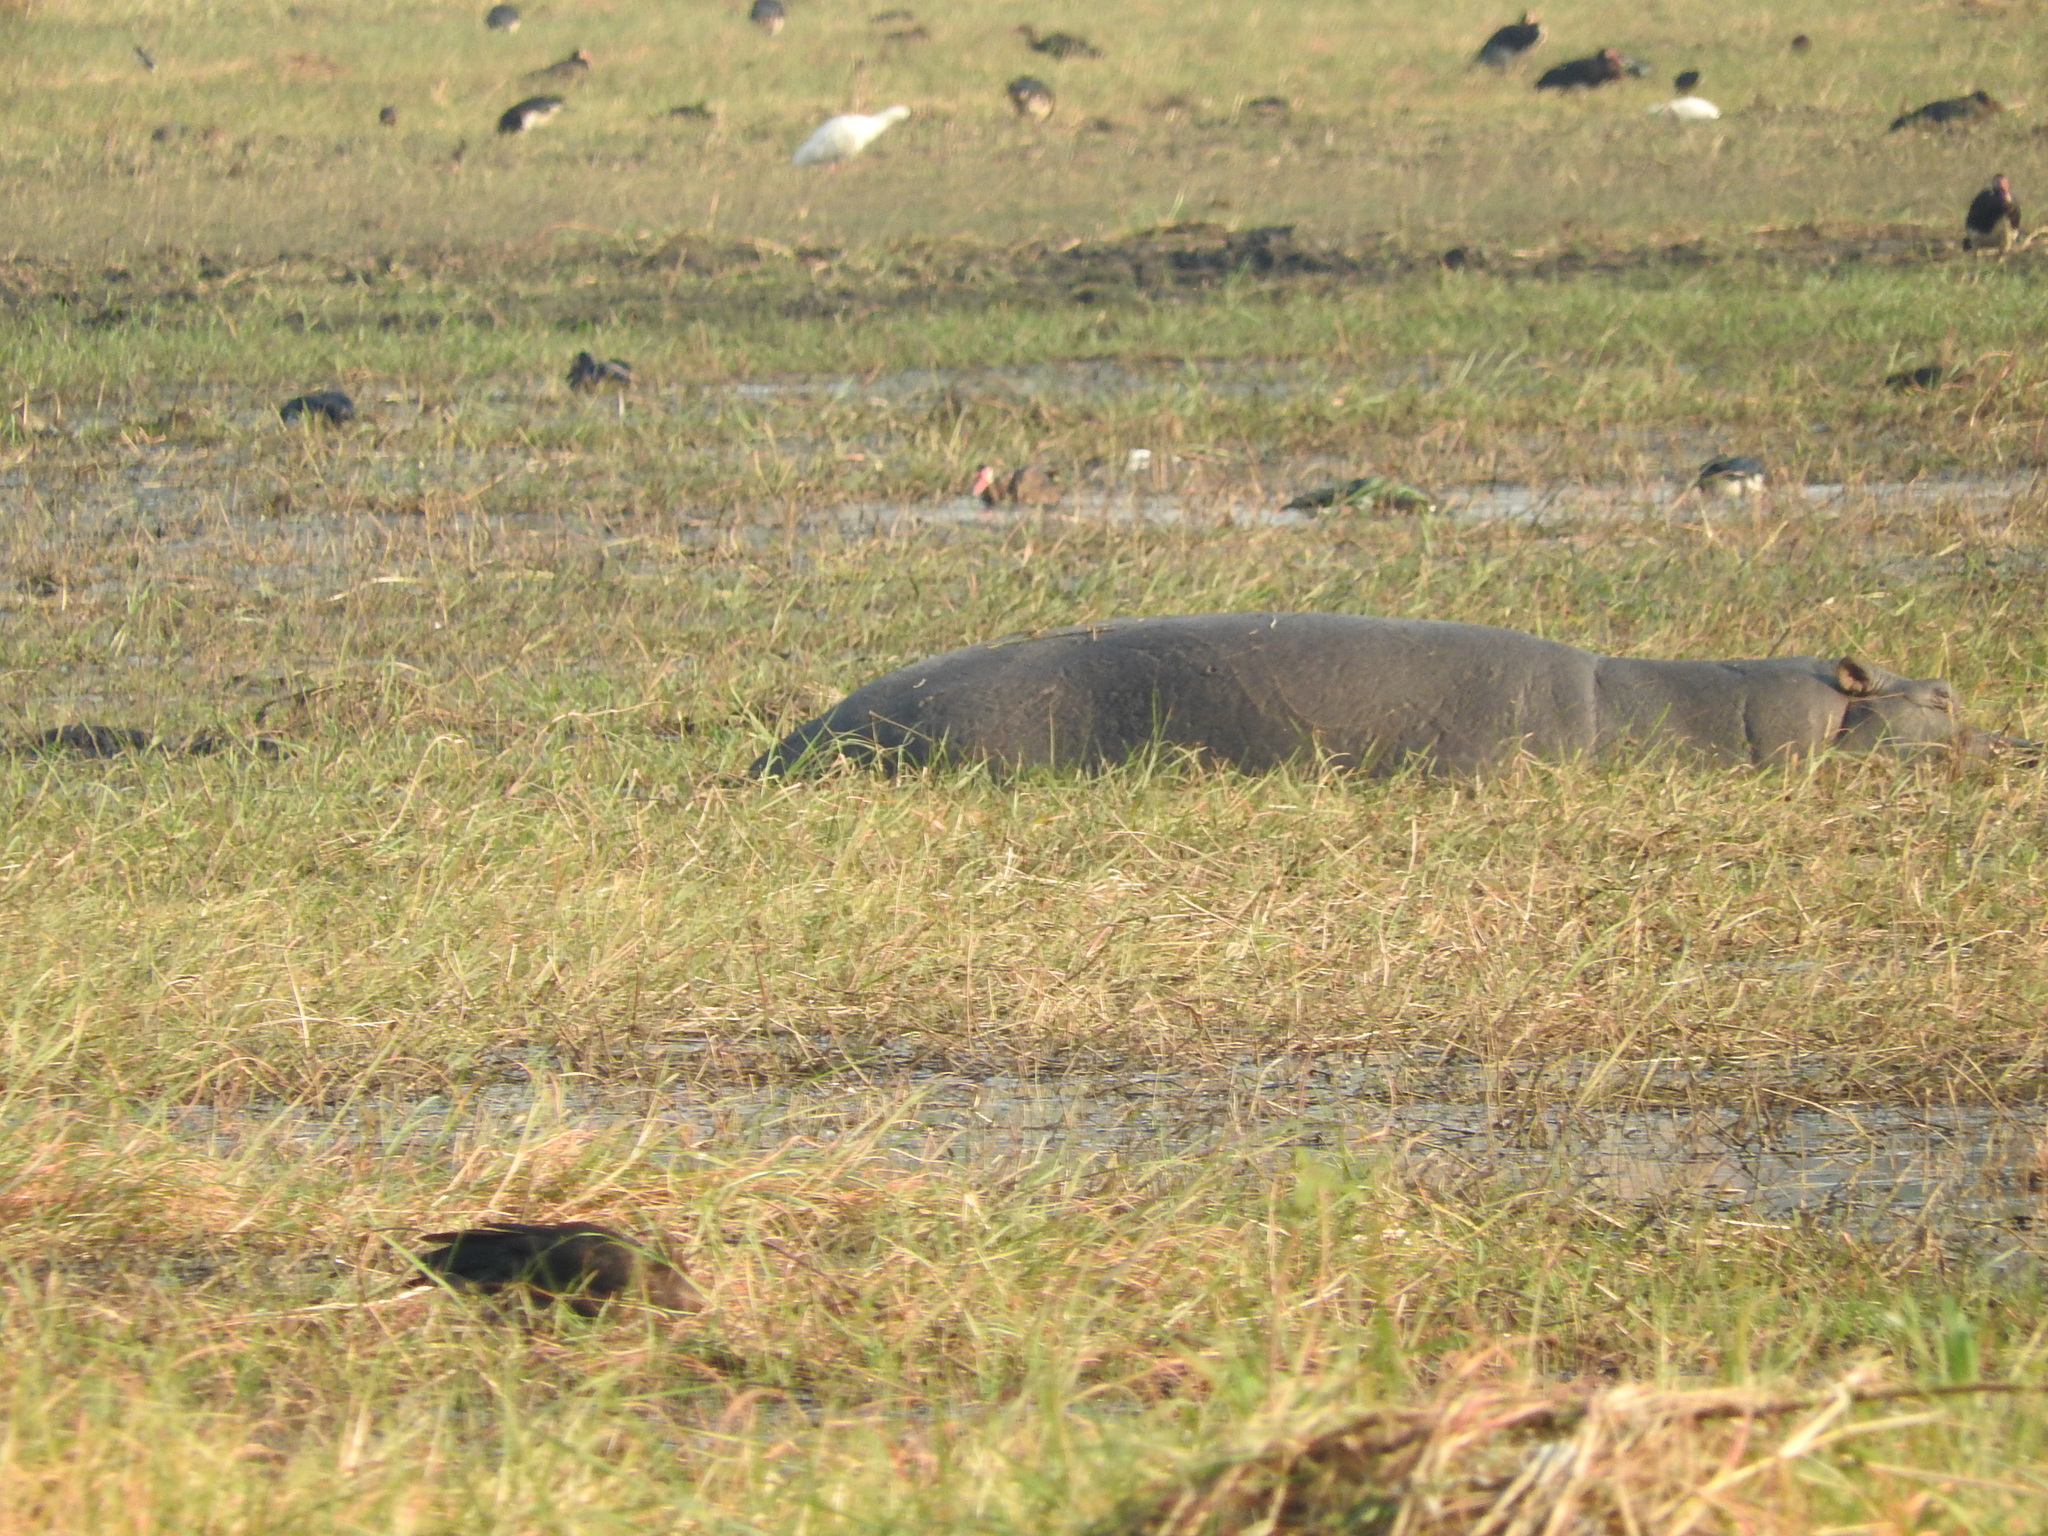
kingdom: Animalia
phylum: Chordata
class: Mammalia
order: Artiodactyla
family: Hippopotamidae
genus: Hippopotamus
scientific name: Hippopotamus amphibius
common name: Common hippopotamus
